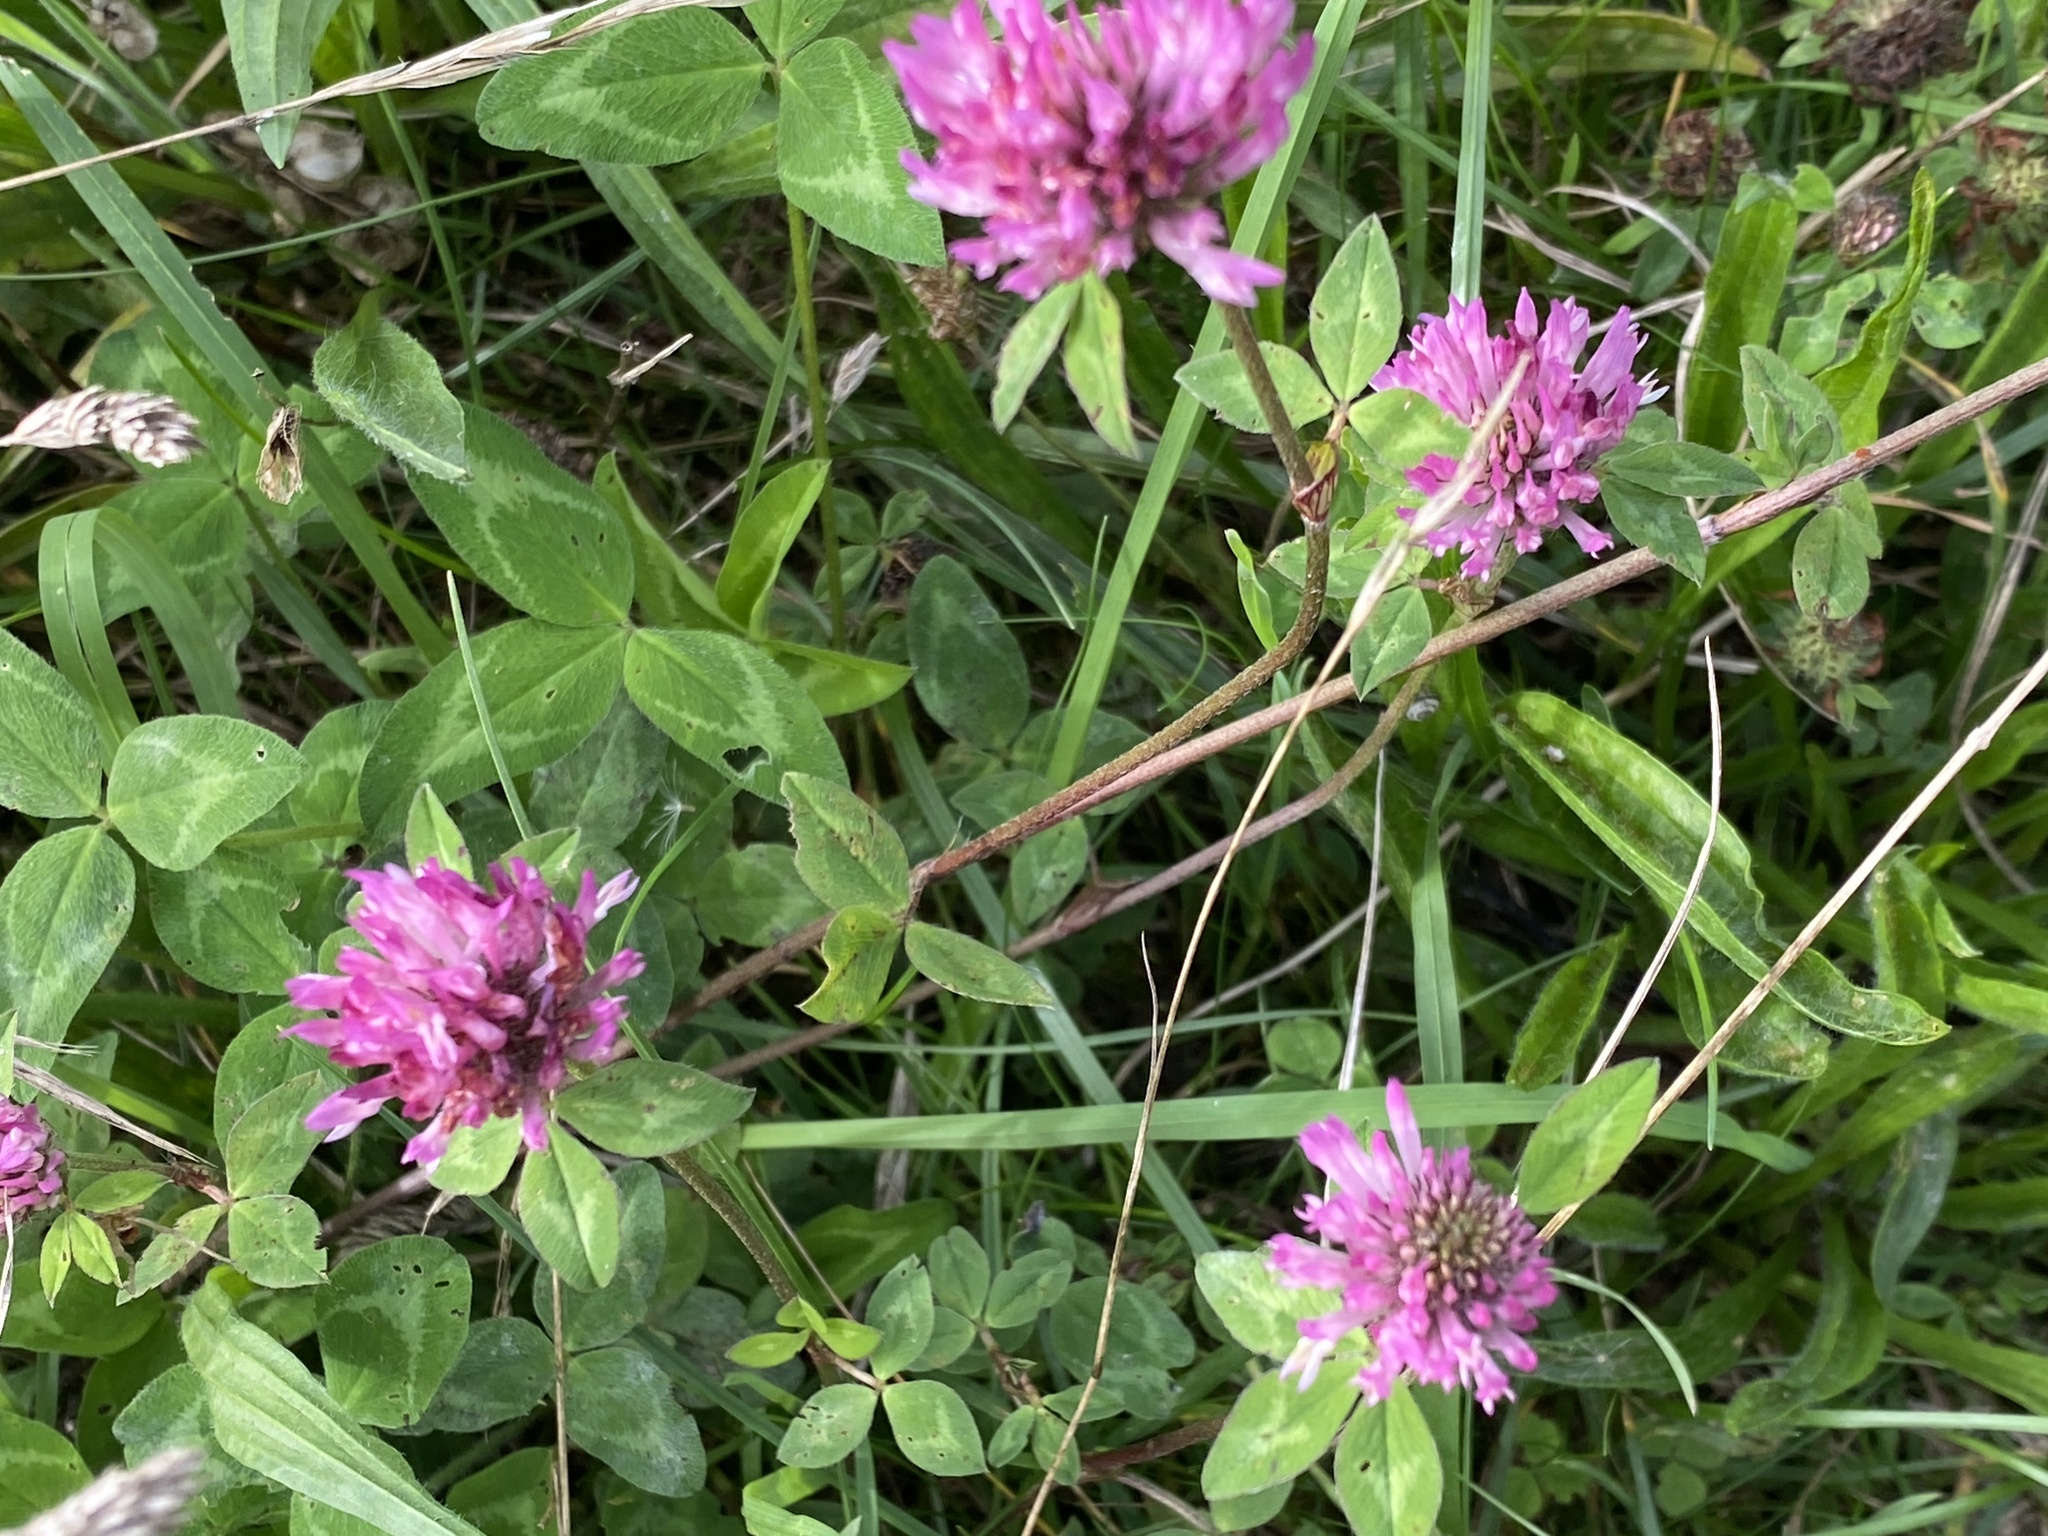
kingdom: Plantae
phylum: Tracheophyta
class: Magnoliopsida
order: Fabales
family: Fabaceae
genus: Trifolium
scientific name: Trifolium pratense
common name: Red clover
